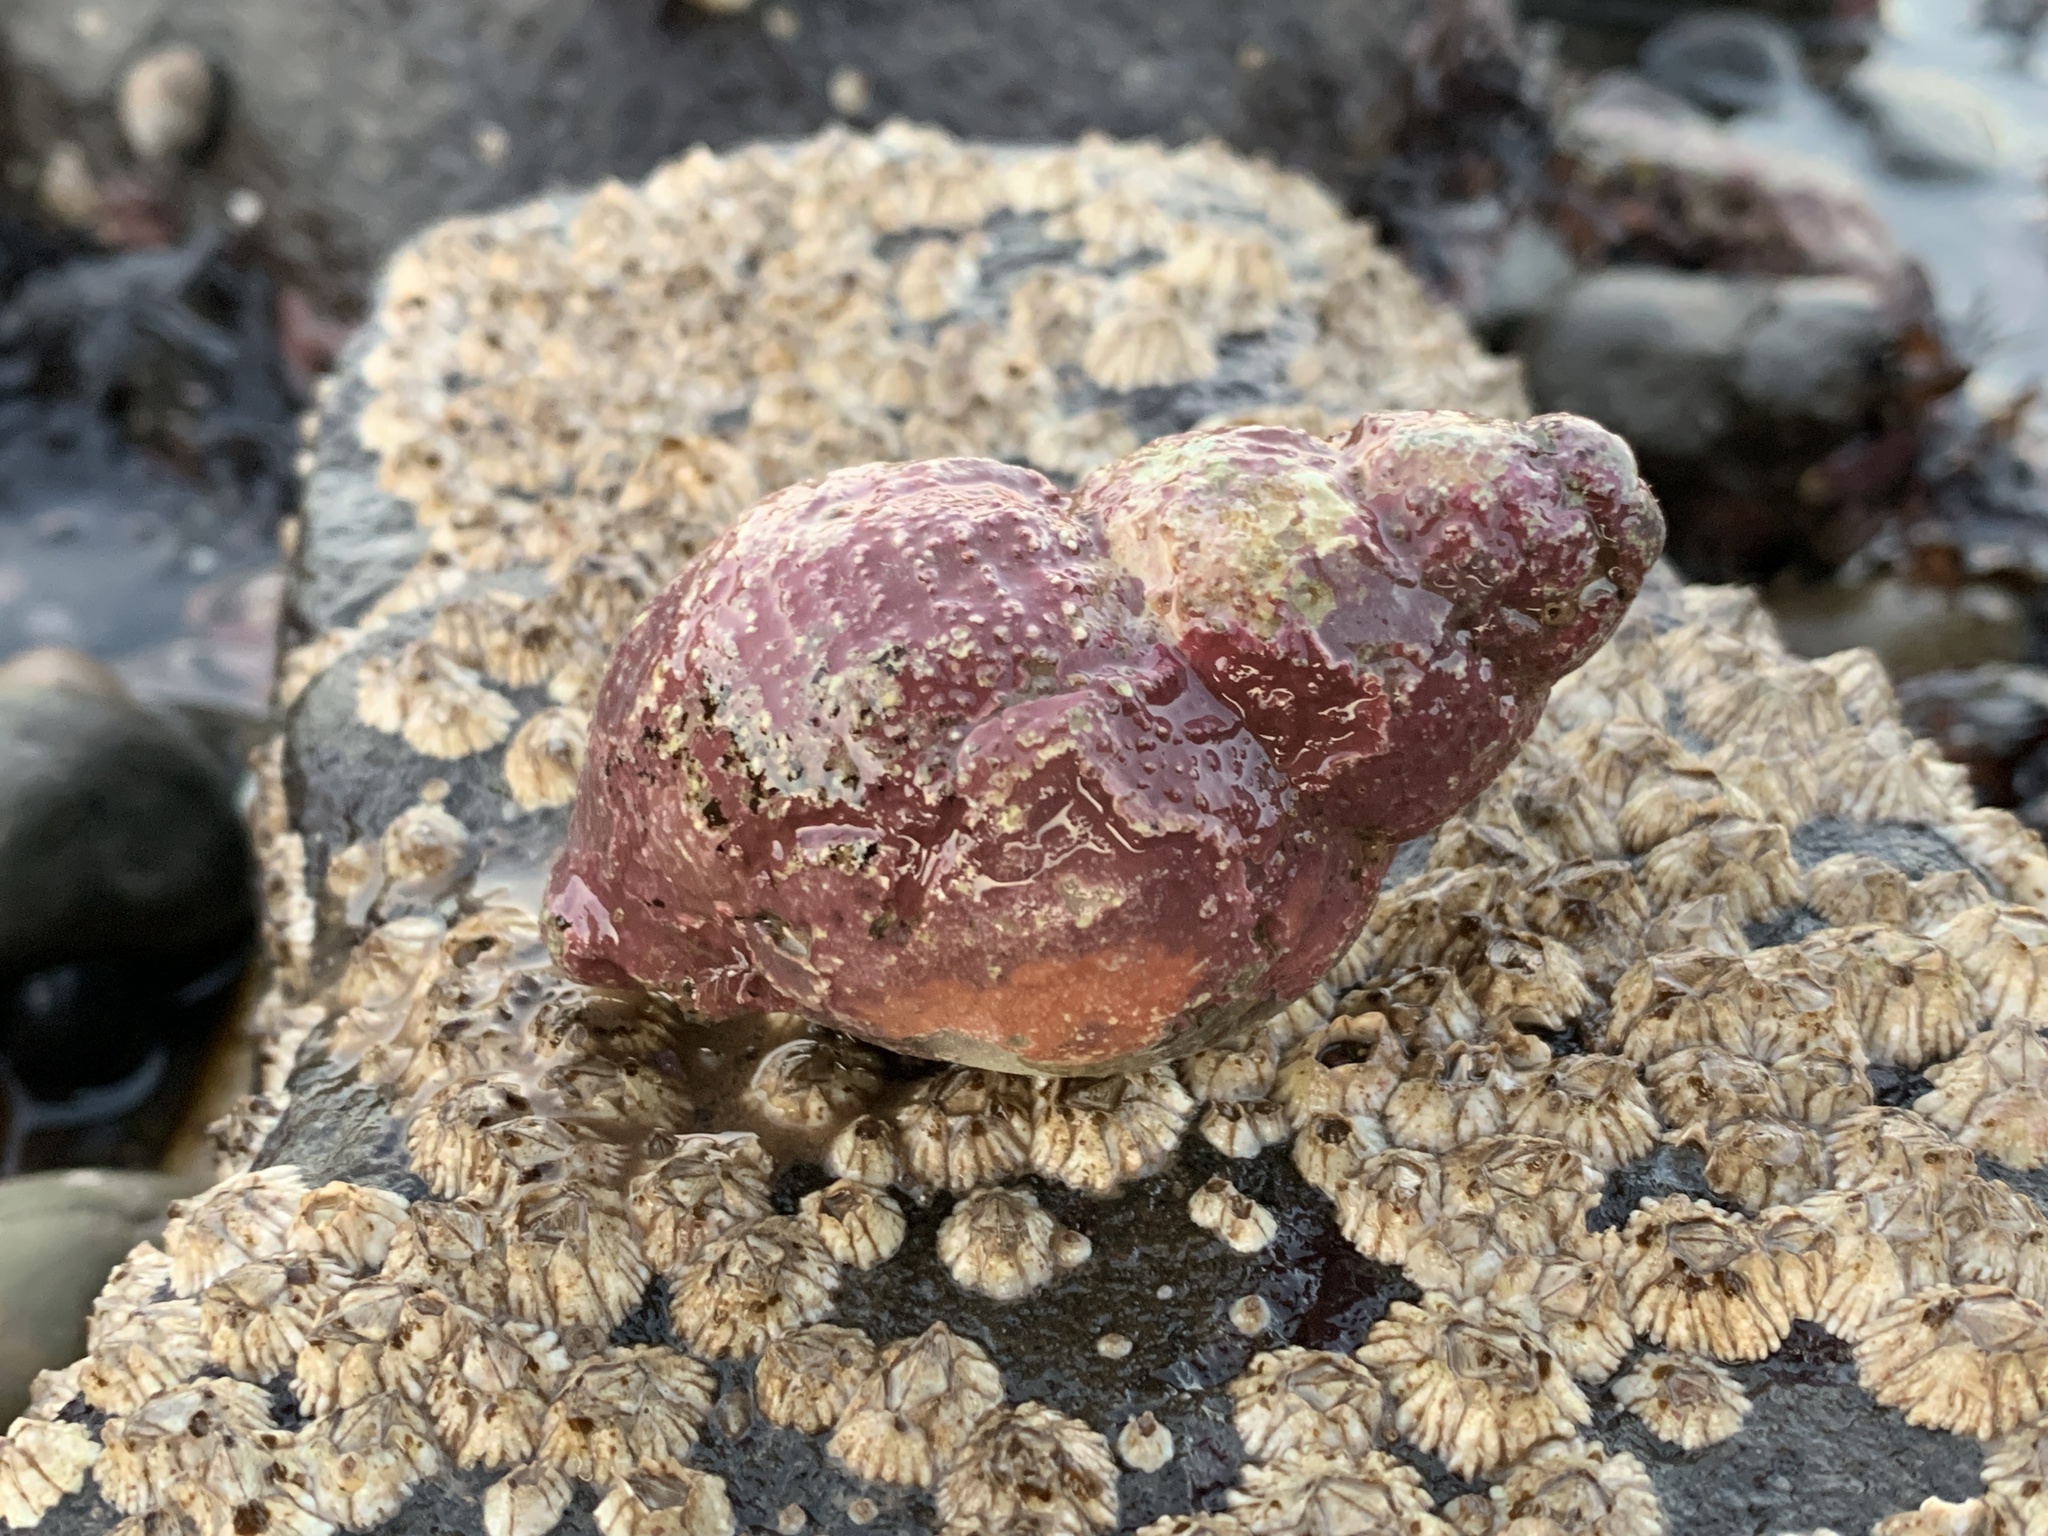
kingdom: Animalia
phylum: Mollusca
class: Gastropoda
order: Neogastropoda
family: Buccinidae
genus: Buccinum
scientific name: Buccinum undatum
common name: Common whelk
